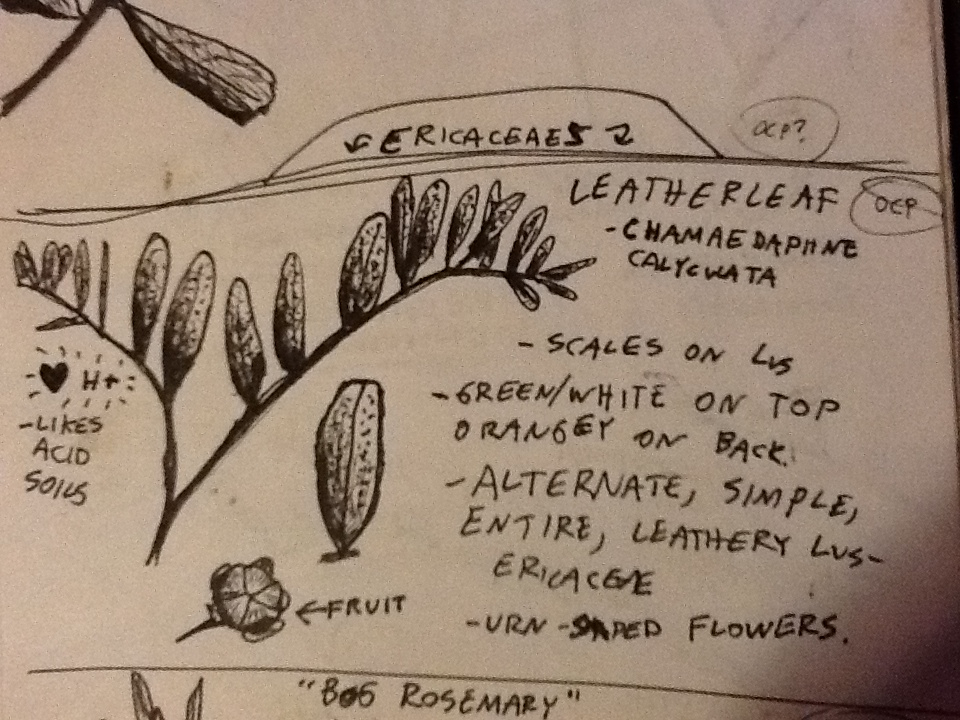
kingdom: Plantae
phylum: Tracheophyta
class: Magnoliopsida
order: Ericales
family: Ericaceae
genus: Chamaedaphne
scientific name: Chamaedaphne calyculata
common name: Leatherleaf
